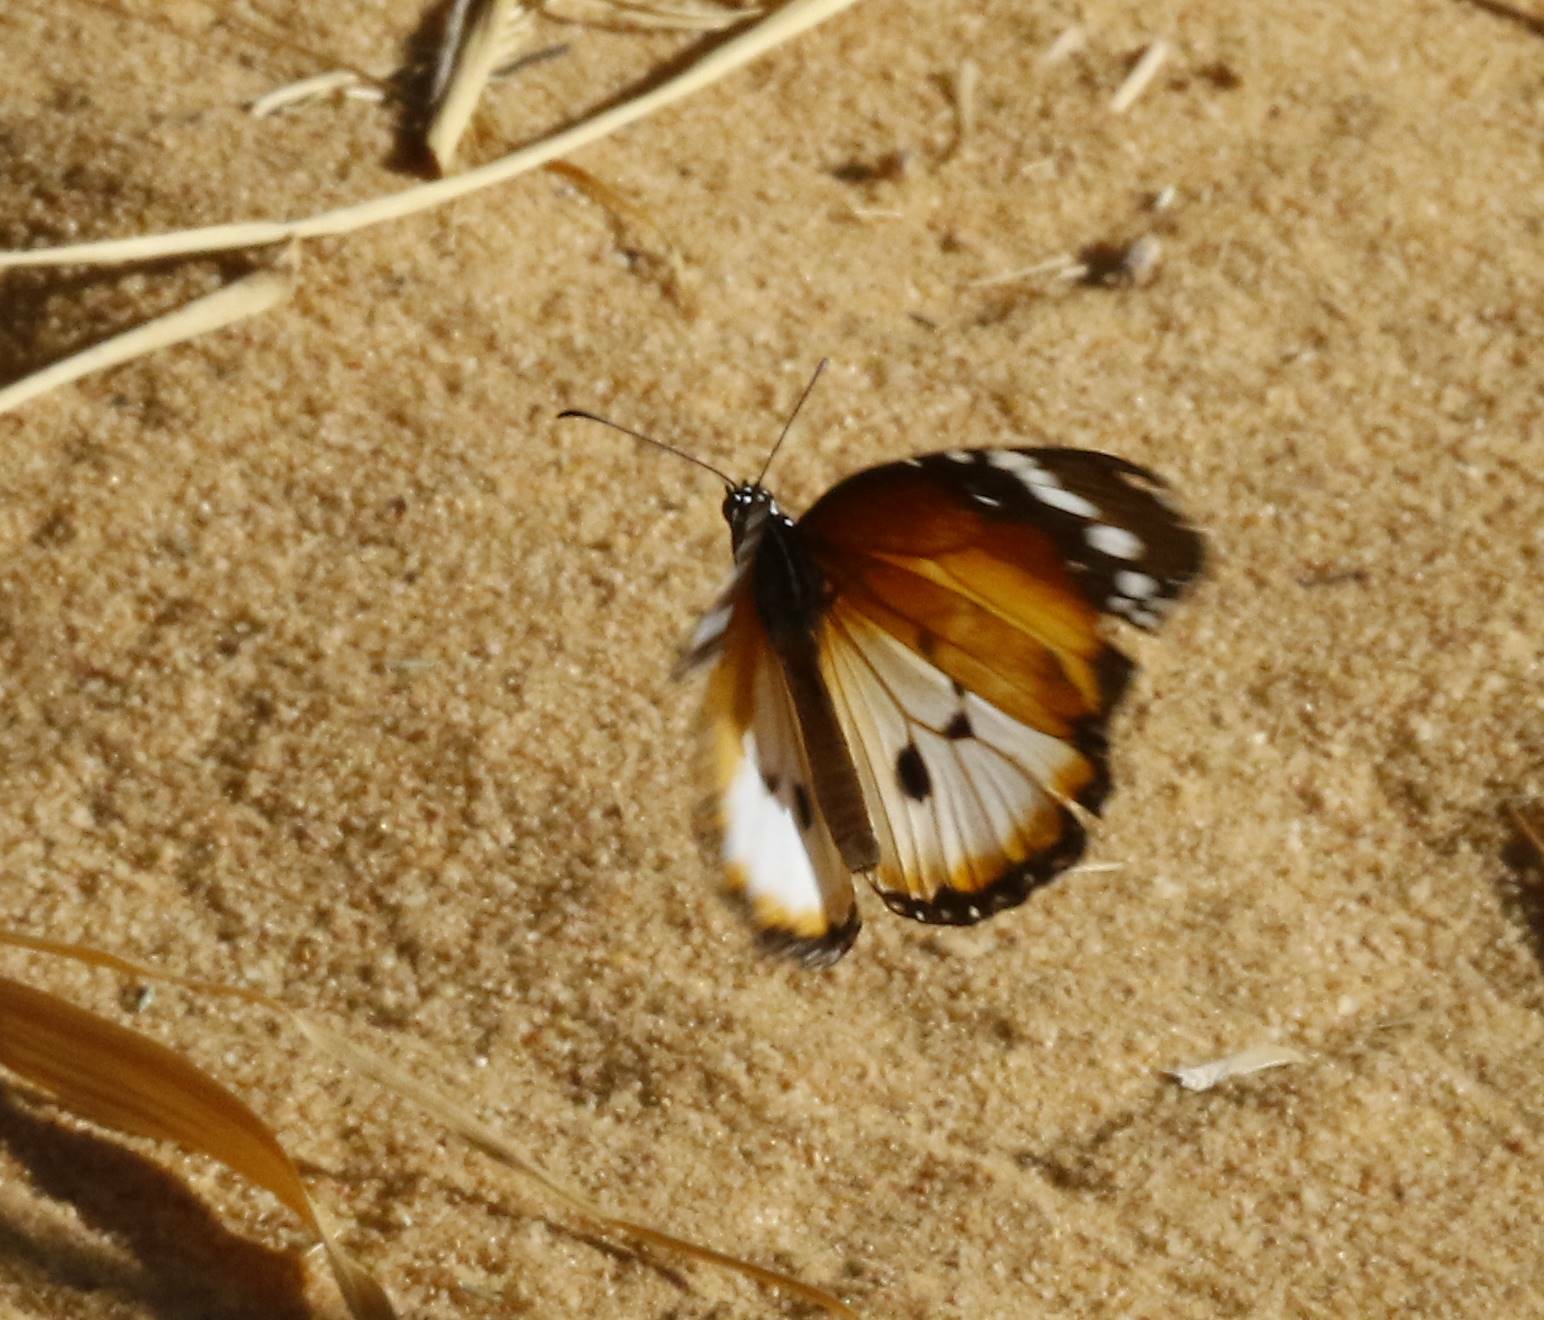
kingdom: Animalia
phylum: Arthropoda
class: Insecta
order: Lepidoptera
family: Nymphalidae
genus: Danaus
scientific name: Danaus chrysippus
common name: Plain tiger
